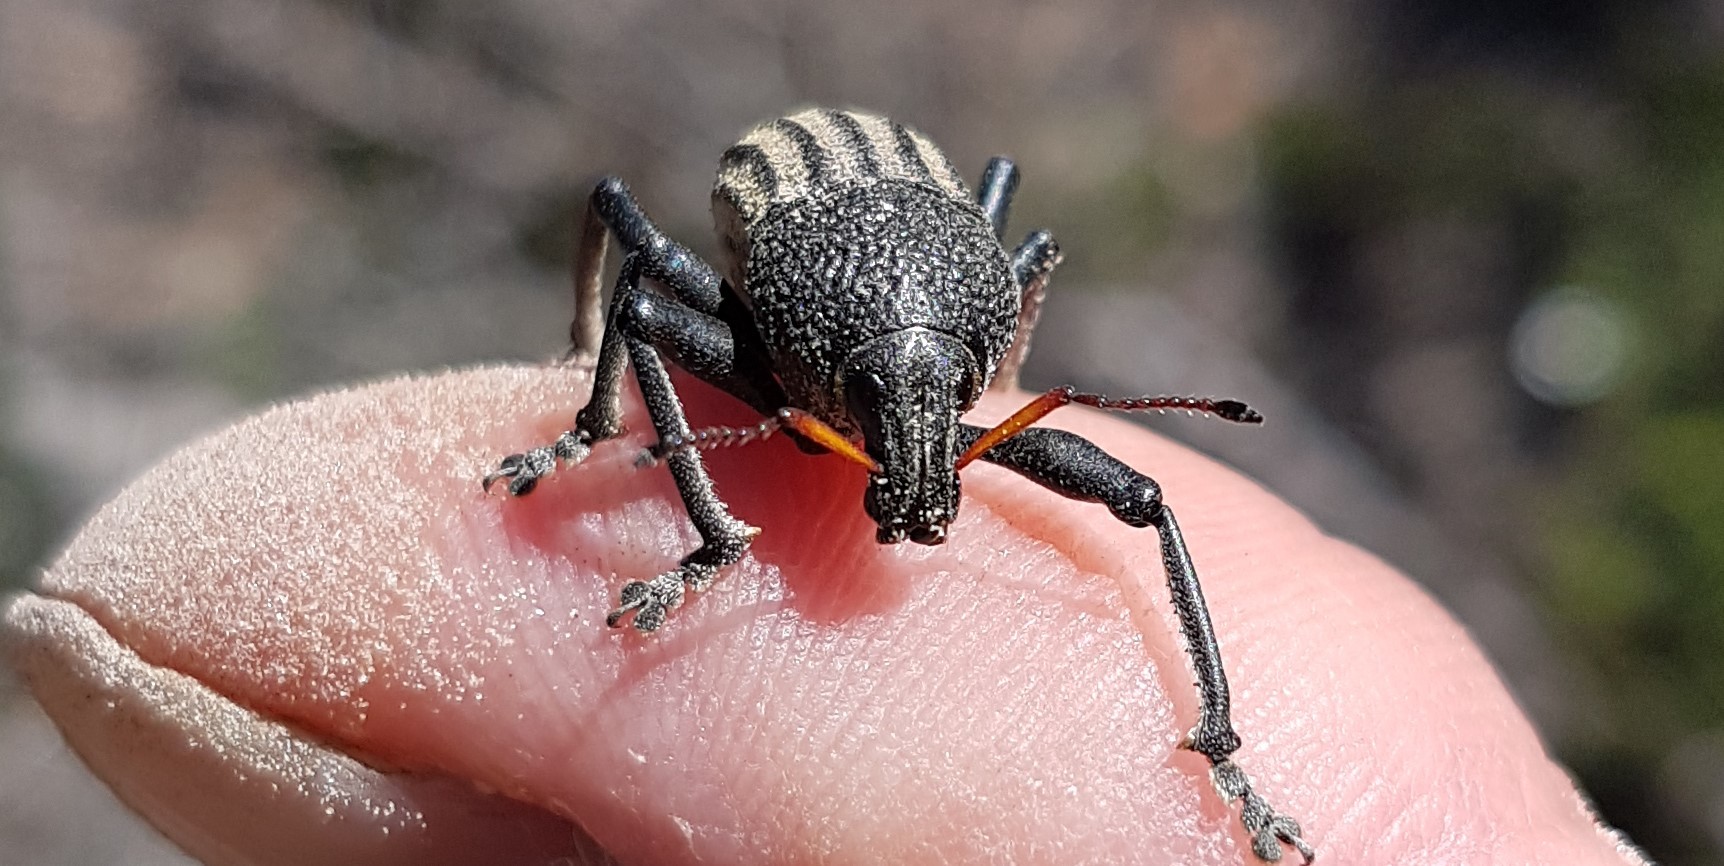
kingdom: Animalia
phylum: Arthropoda
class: Insecta
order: Coleoptera
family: Curculionidae
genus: Psapharus
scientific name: Psapharus ruficornis
